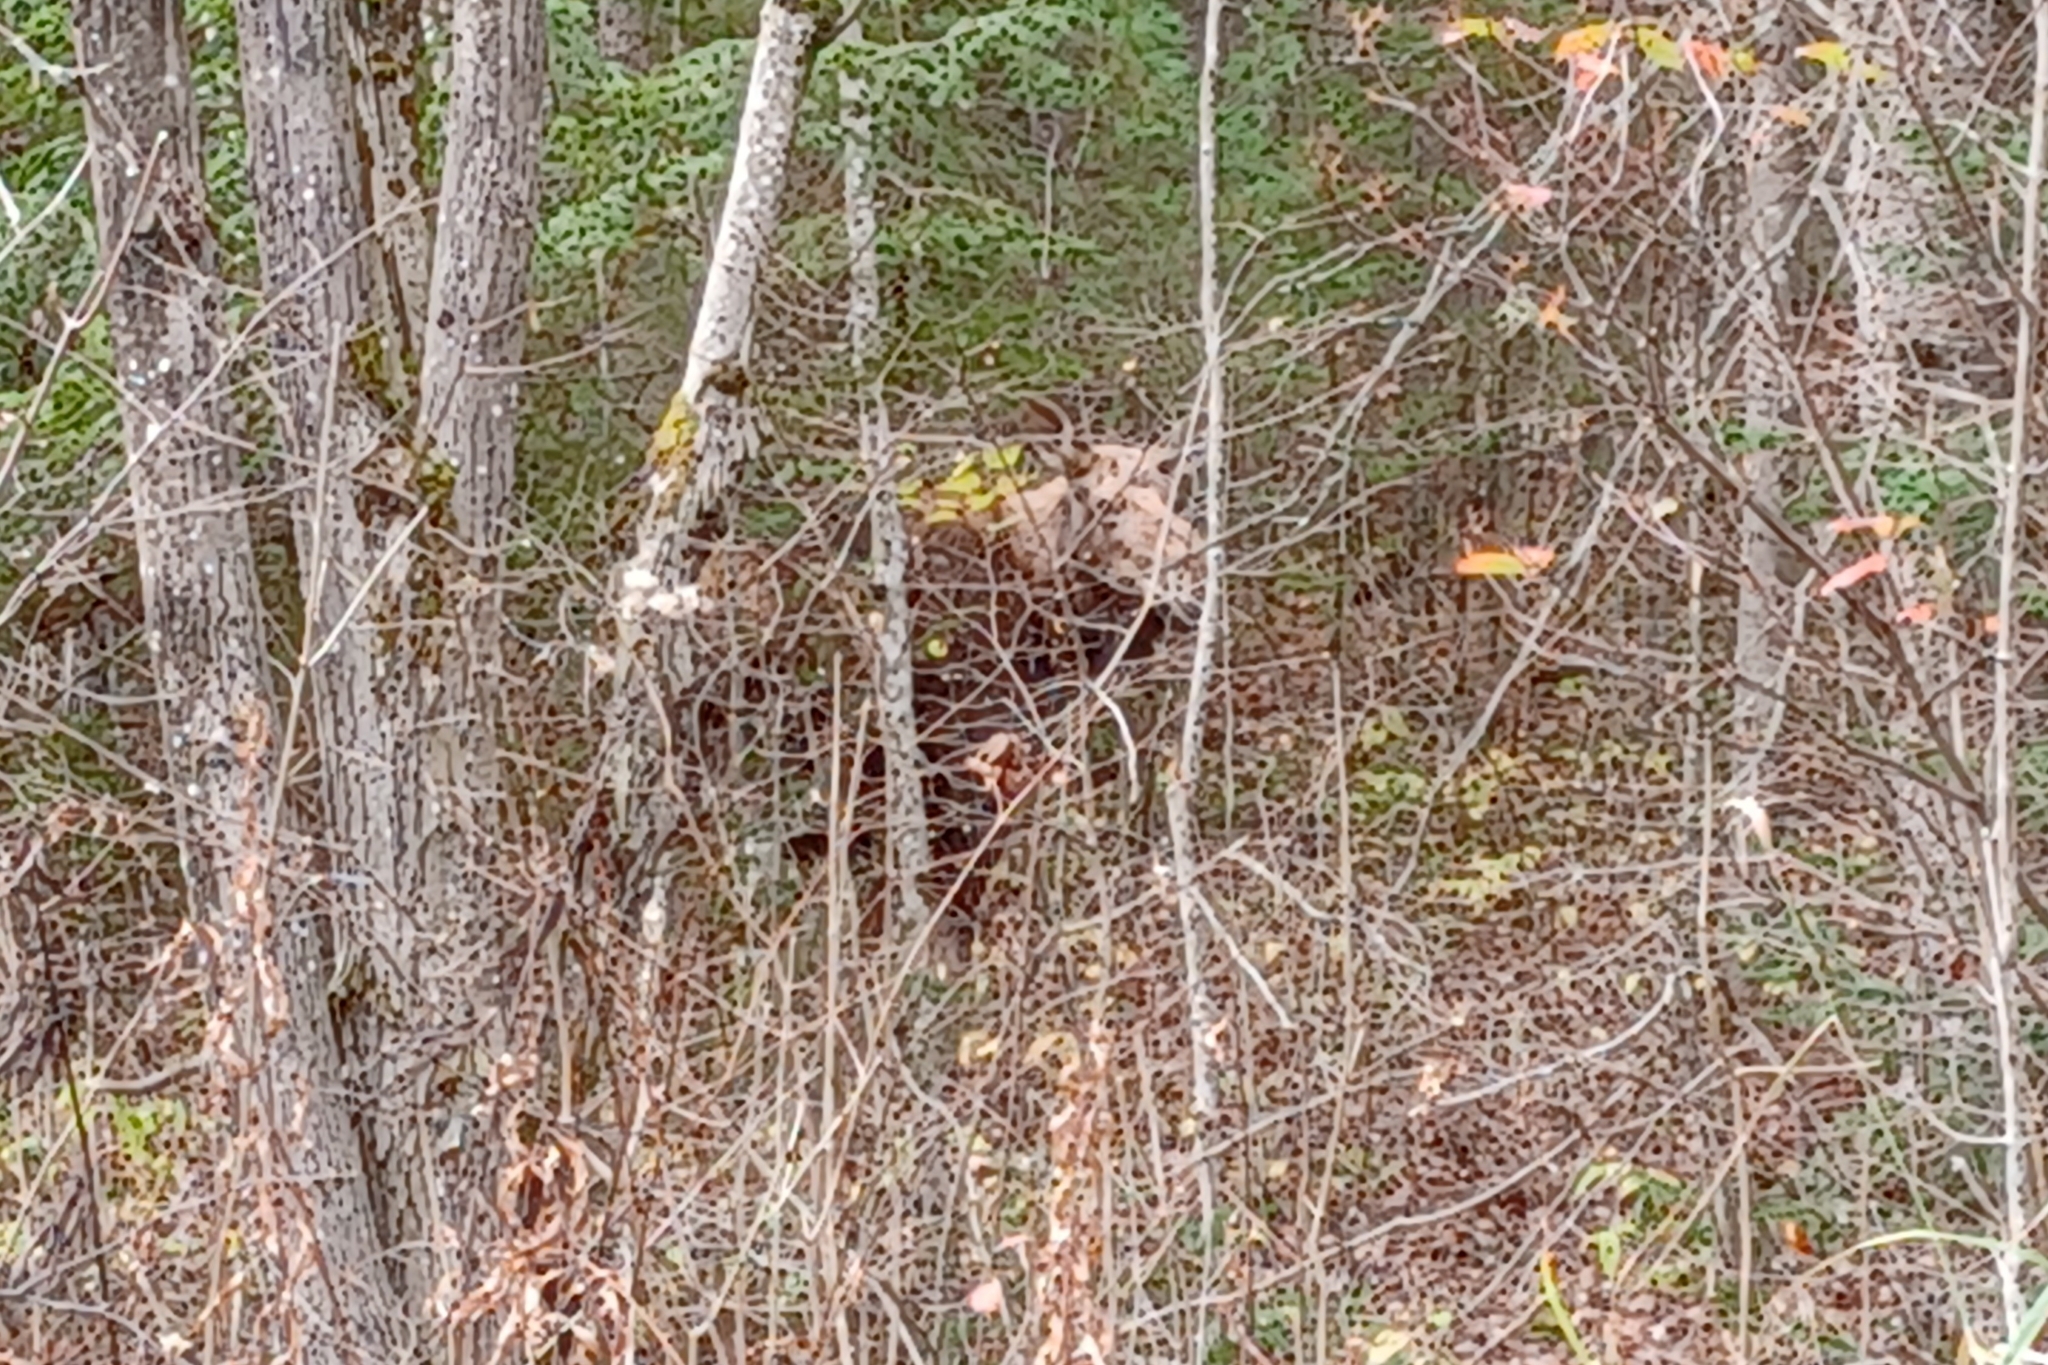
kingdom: Animalia
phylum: Chordata
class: Mammalia
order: Artiodactyla
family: Cervidae
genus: Alces
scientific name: Alces americanus
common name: Moose
